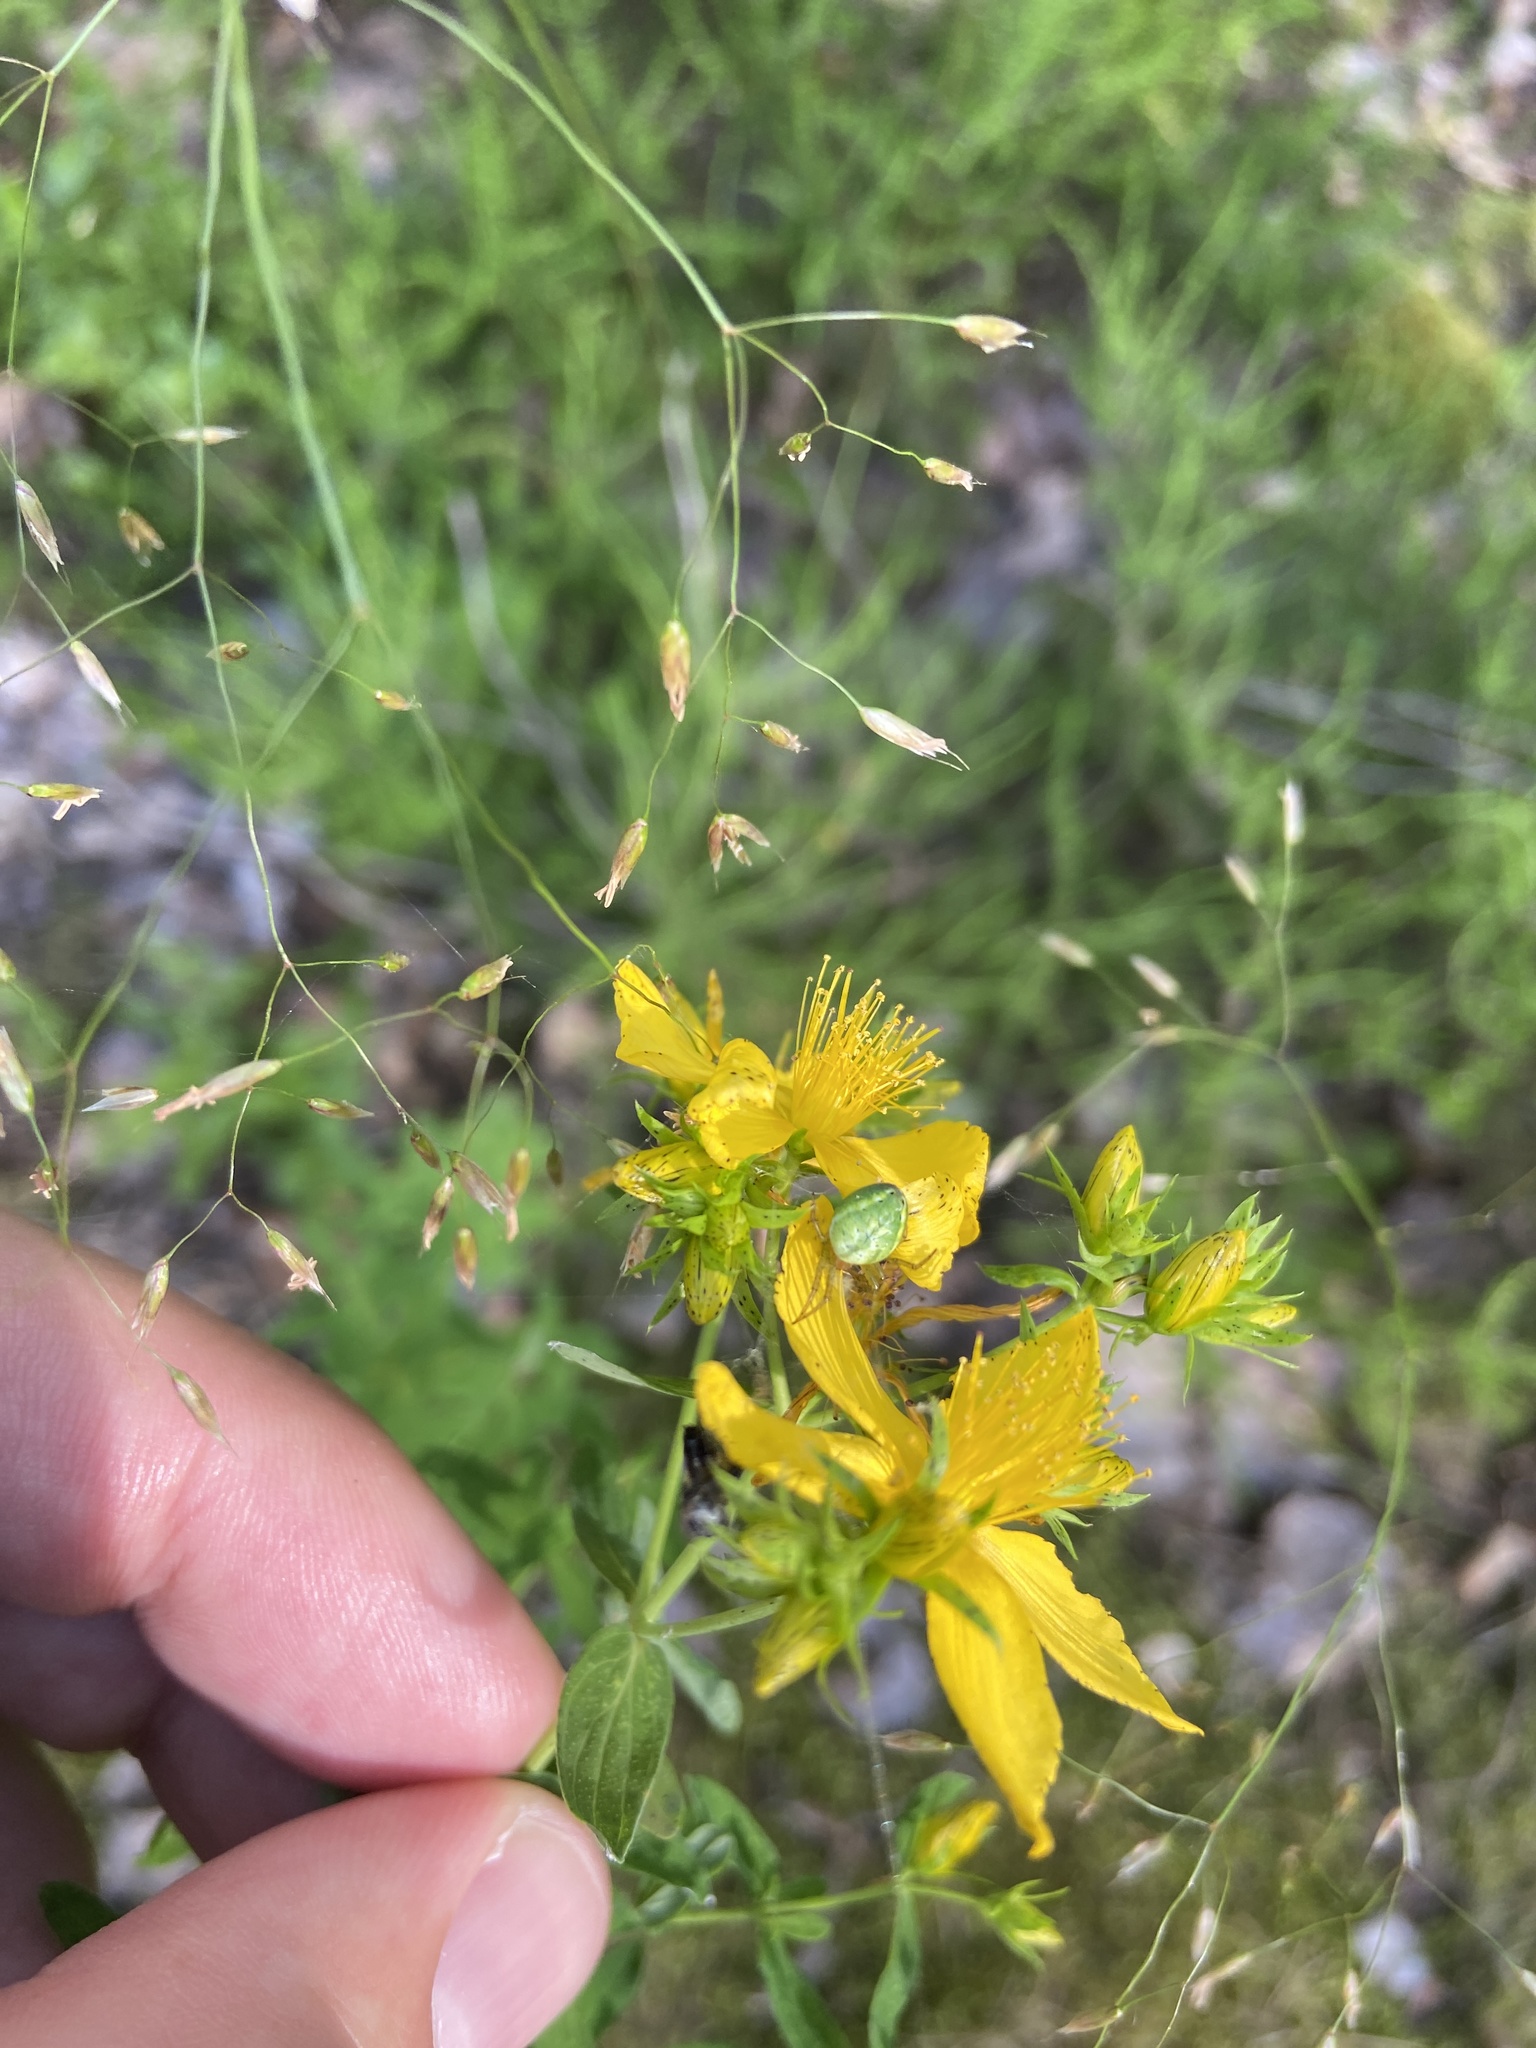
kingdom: Plantae
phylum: Tracheophyta
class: Magnoliopsida
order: Malpighiales
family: Hypericaceae
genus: Hypericum
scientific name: Hypericum perforatum
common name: Common st. johnswort
